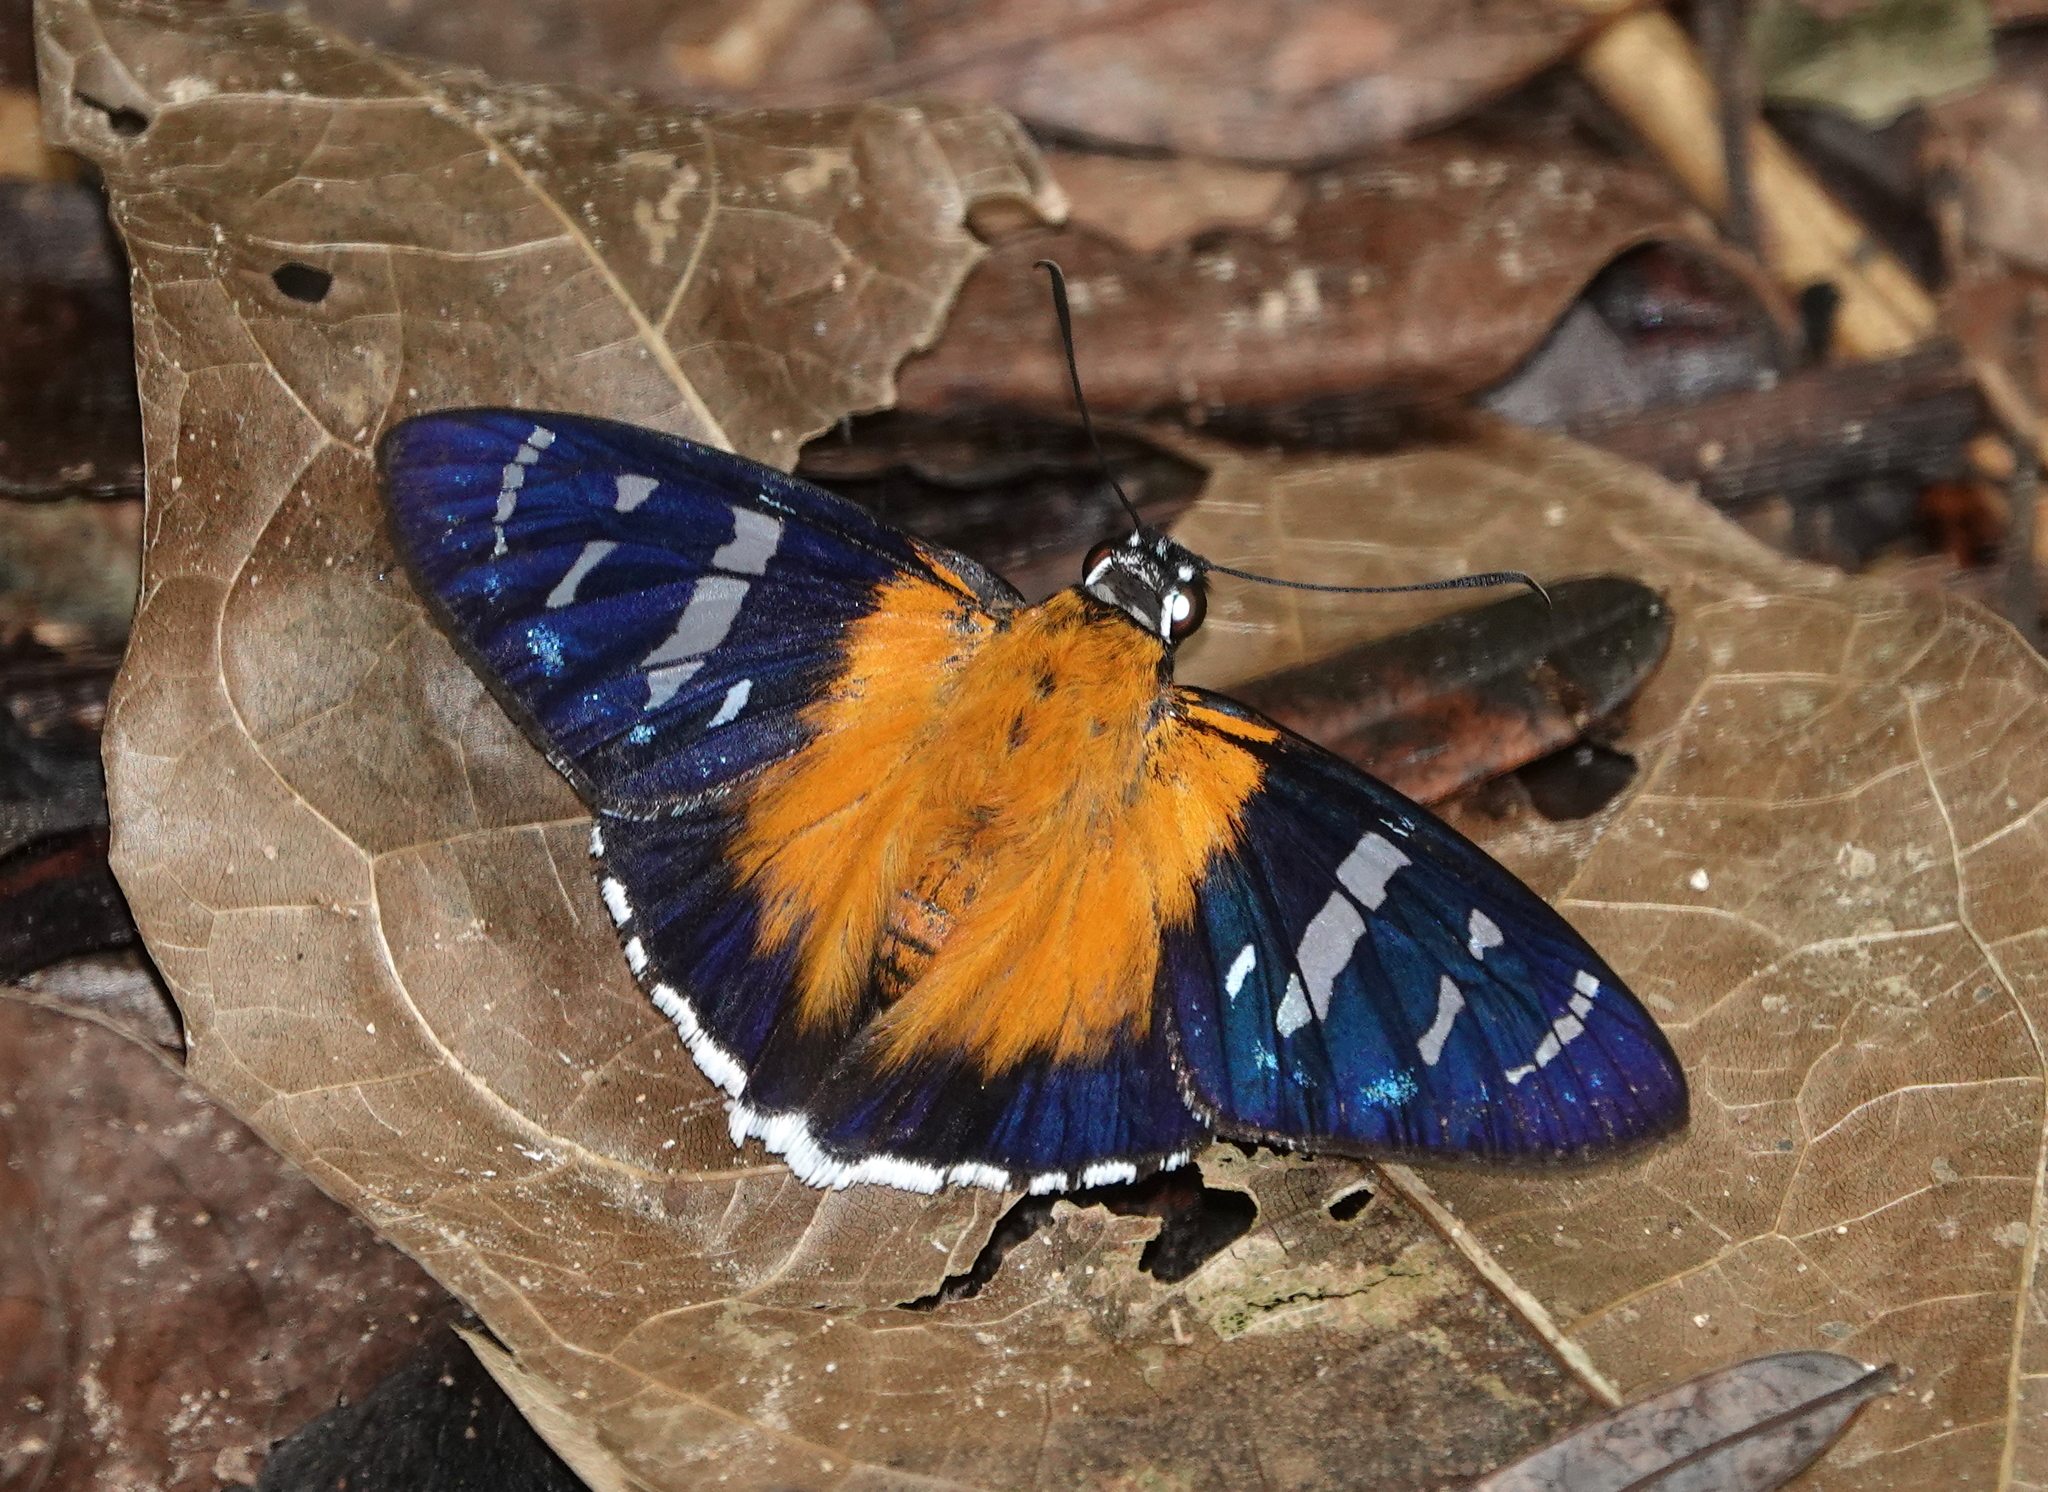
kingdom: Animalia
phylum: Arthropoda
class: Insecta
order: Lepidoptera
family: Hesperiidae
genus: Tarsoctenus
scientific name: Tarsoctenus corytus
